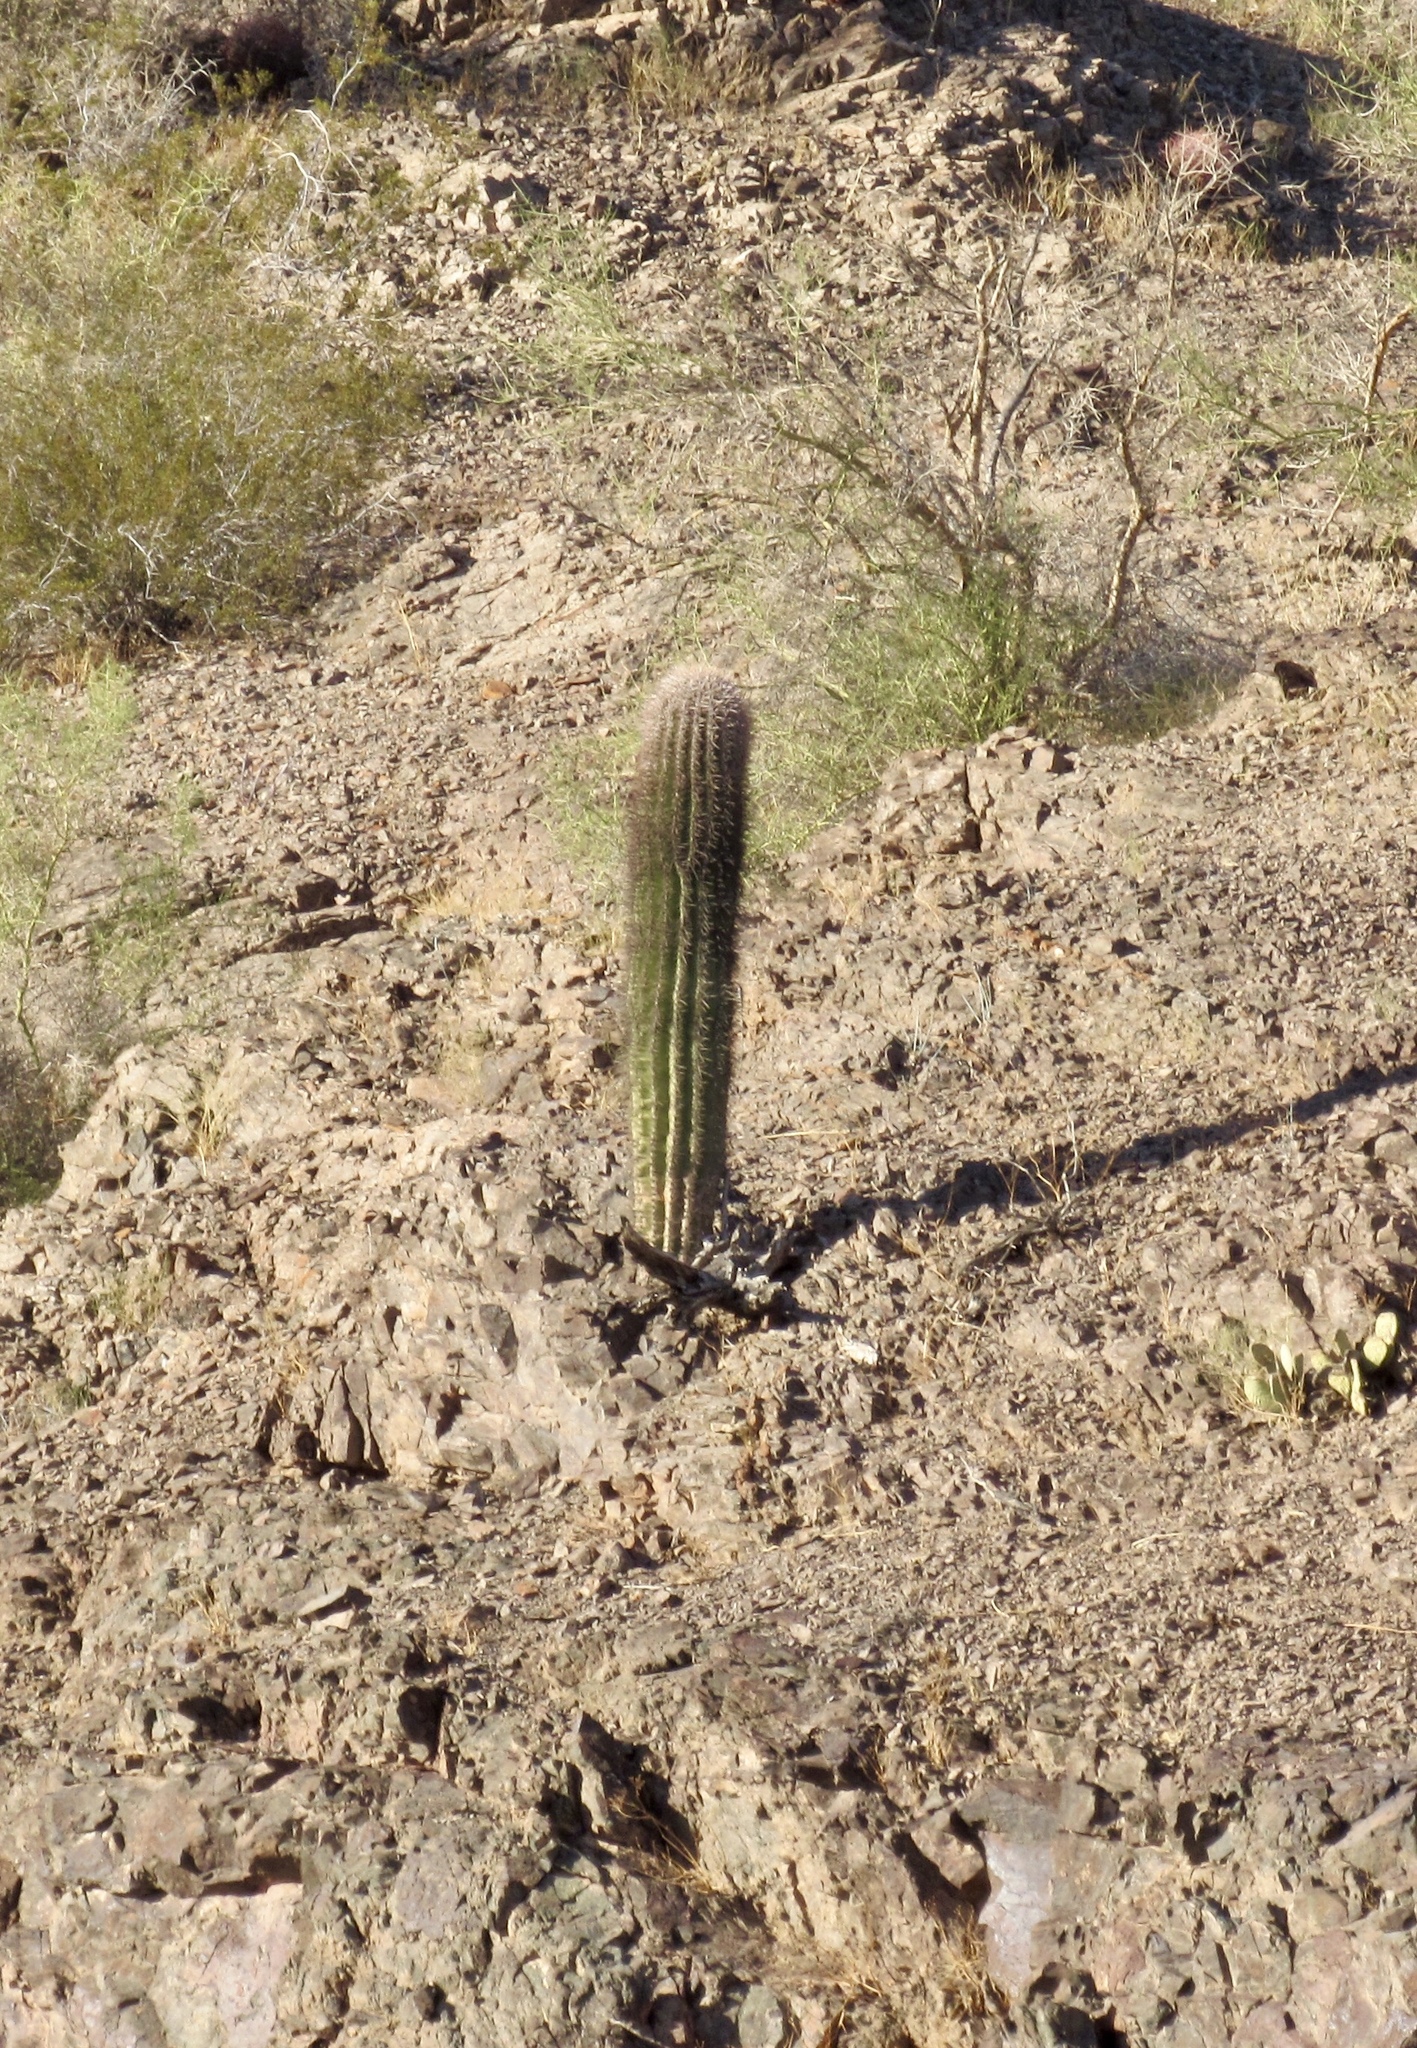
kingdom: Plantae
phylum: Tracheophyta
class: Magnoliopsida
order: Caryophyllales
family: Cactaceae
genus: Carnegiea
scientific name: Carnegiea gigantea
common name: Saguaro
